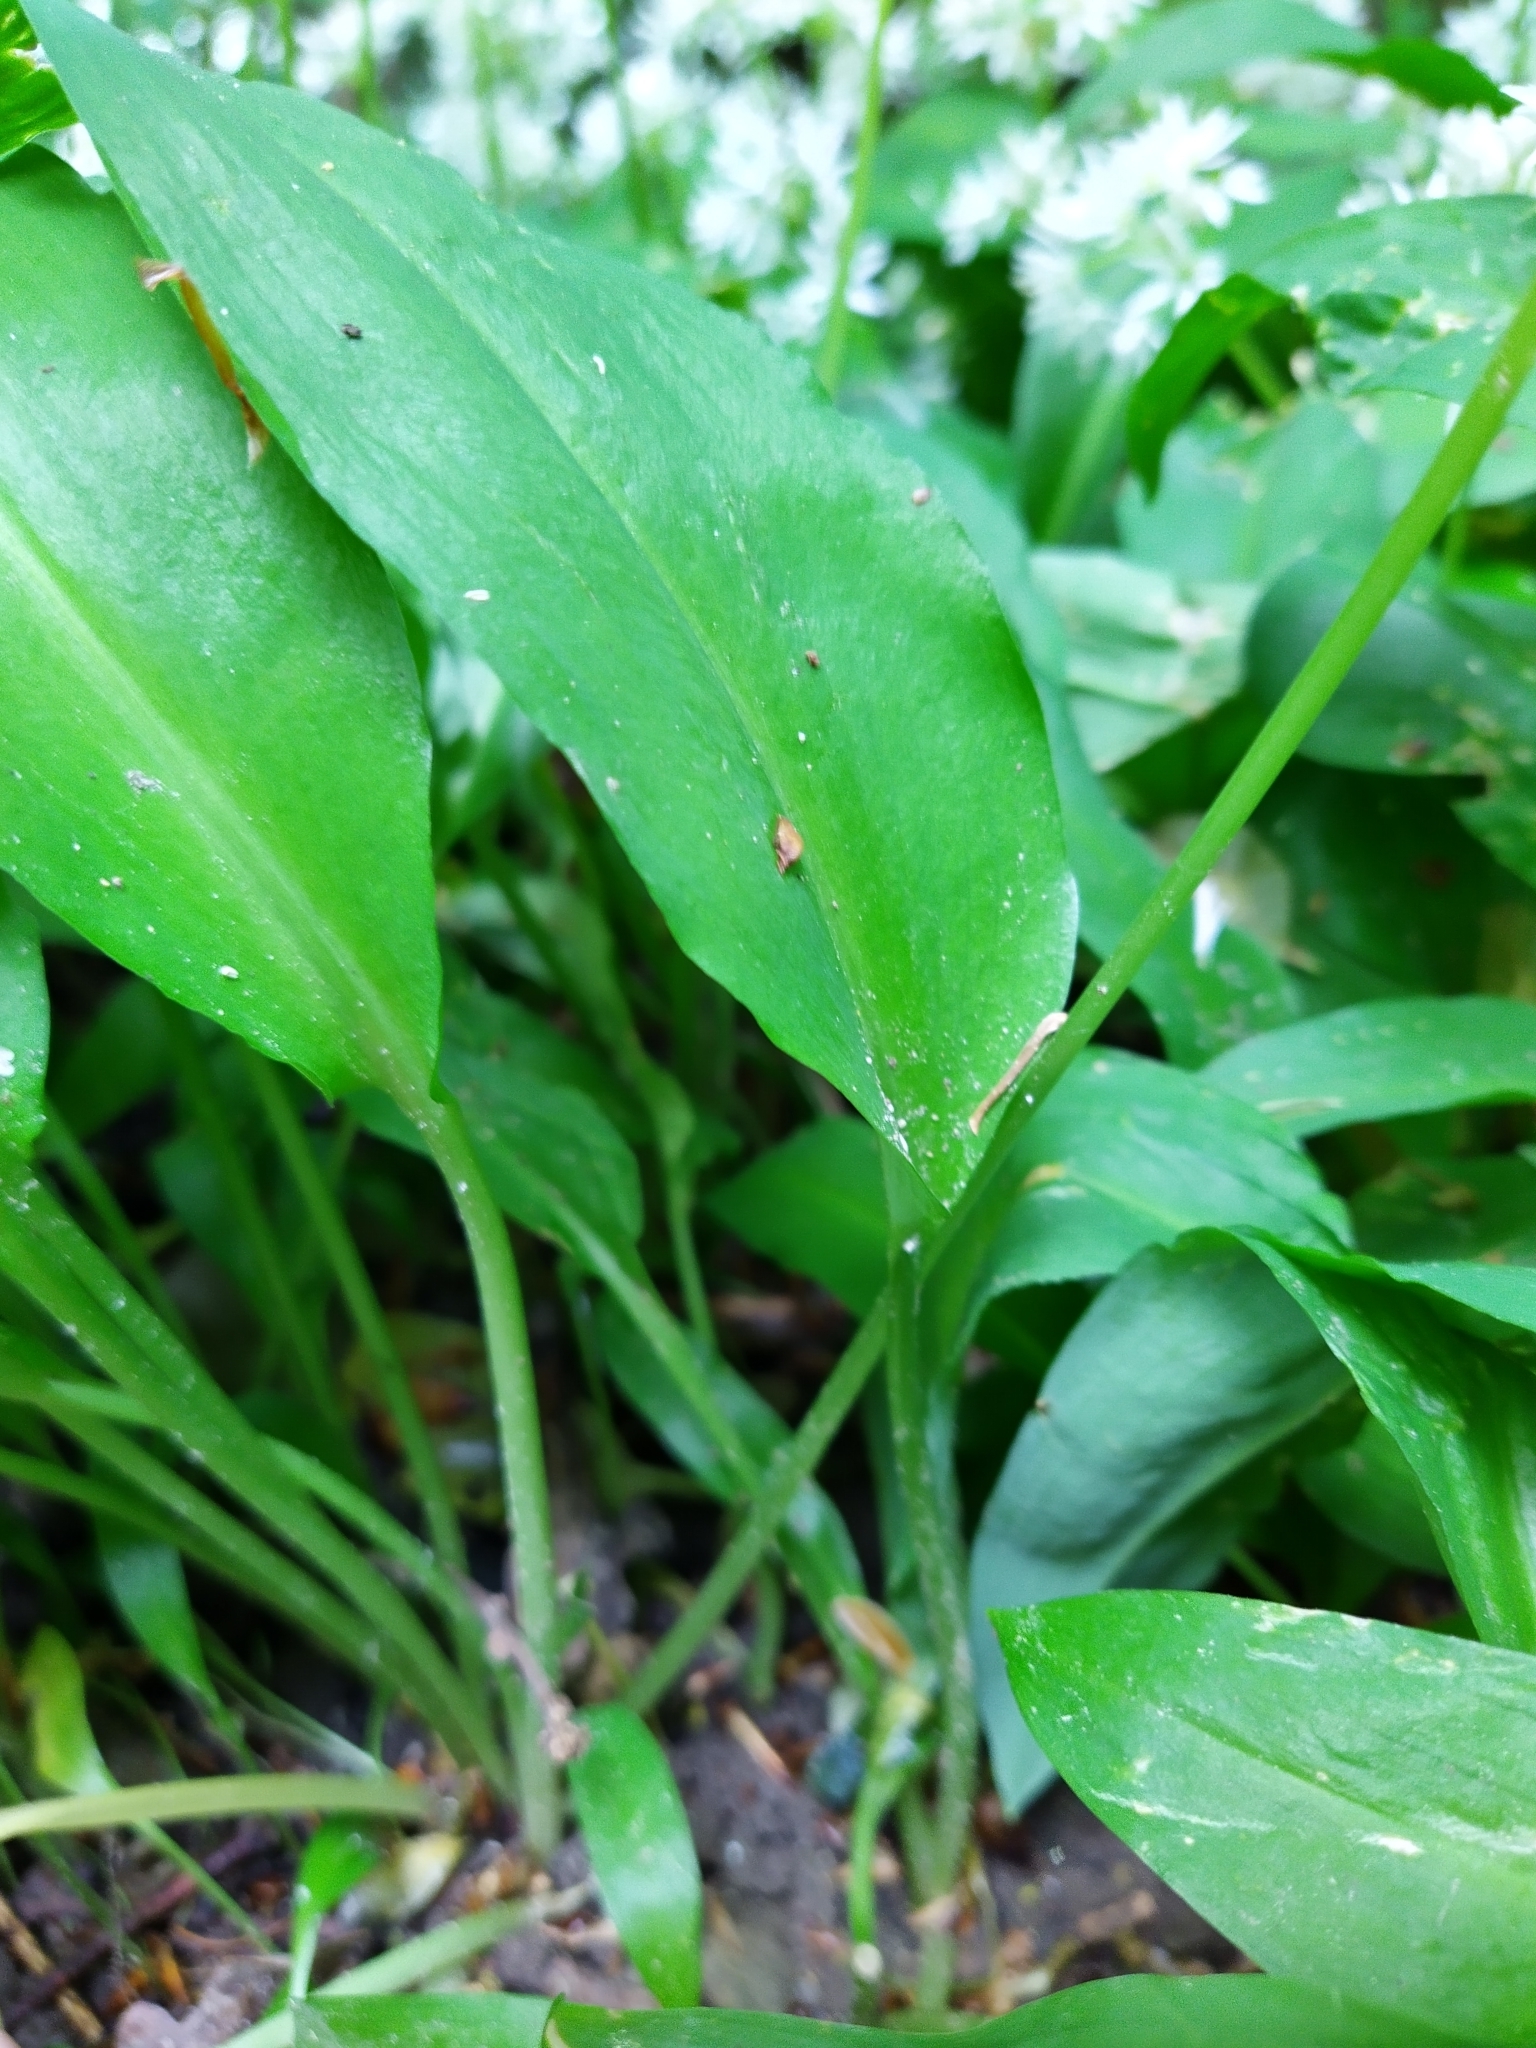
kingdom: Plantae
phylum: Tracheophyta
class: Liliopsida
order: Asparagales
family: Amaryllidaceae
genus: Allium
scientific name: Allium ursinum
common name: Ramsons
